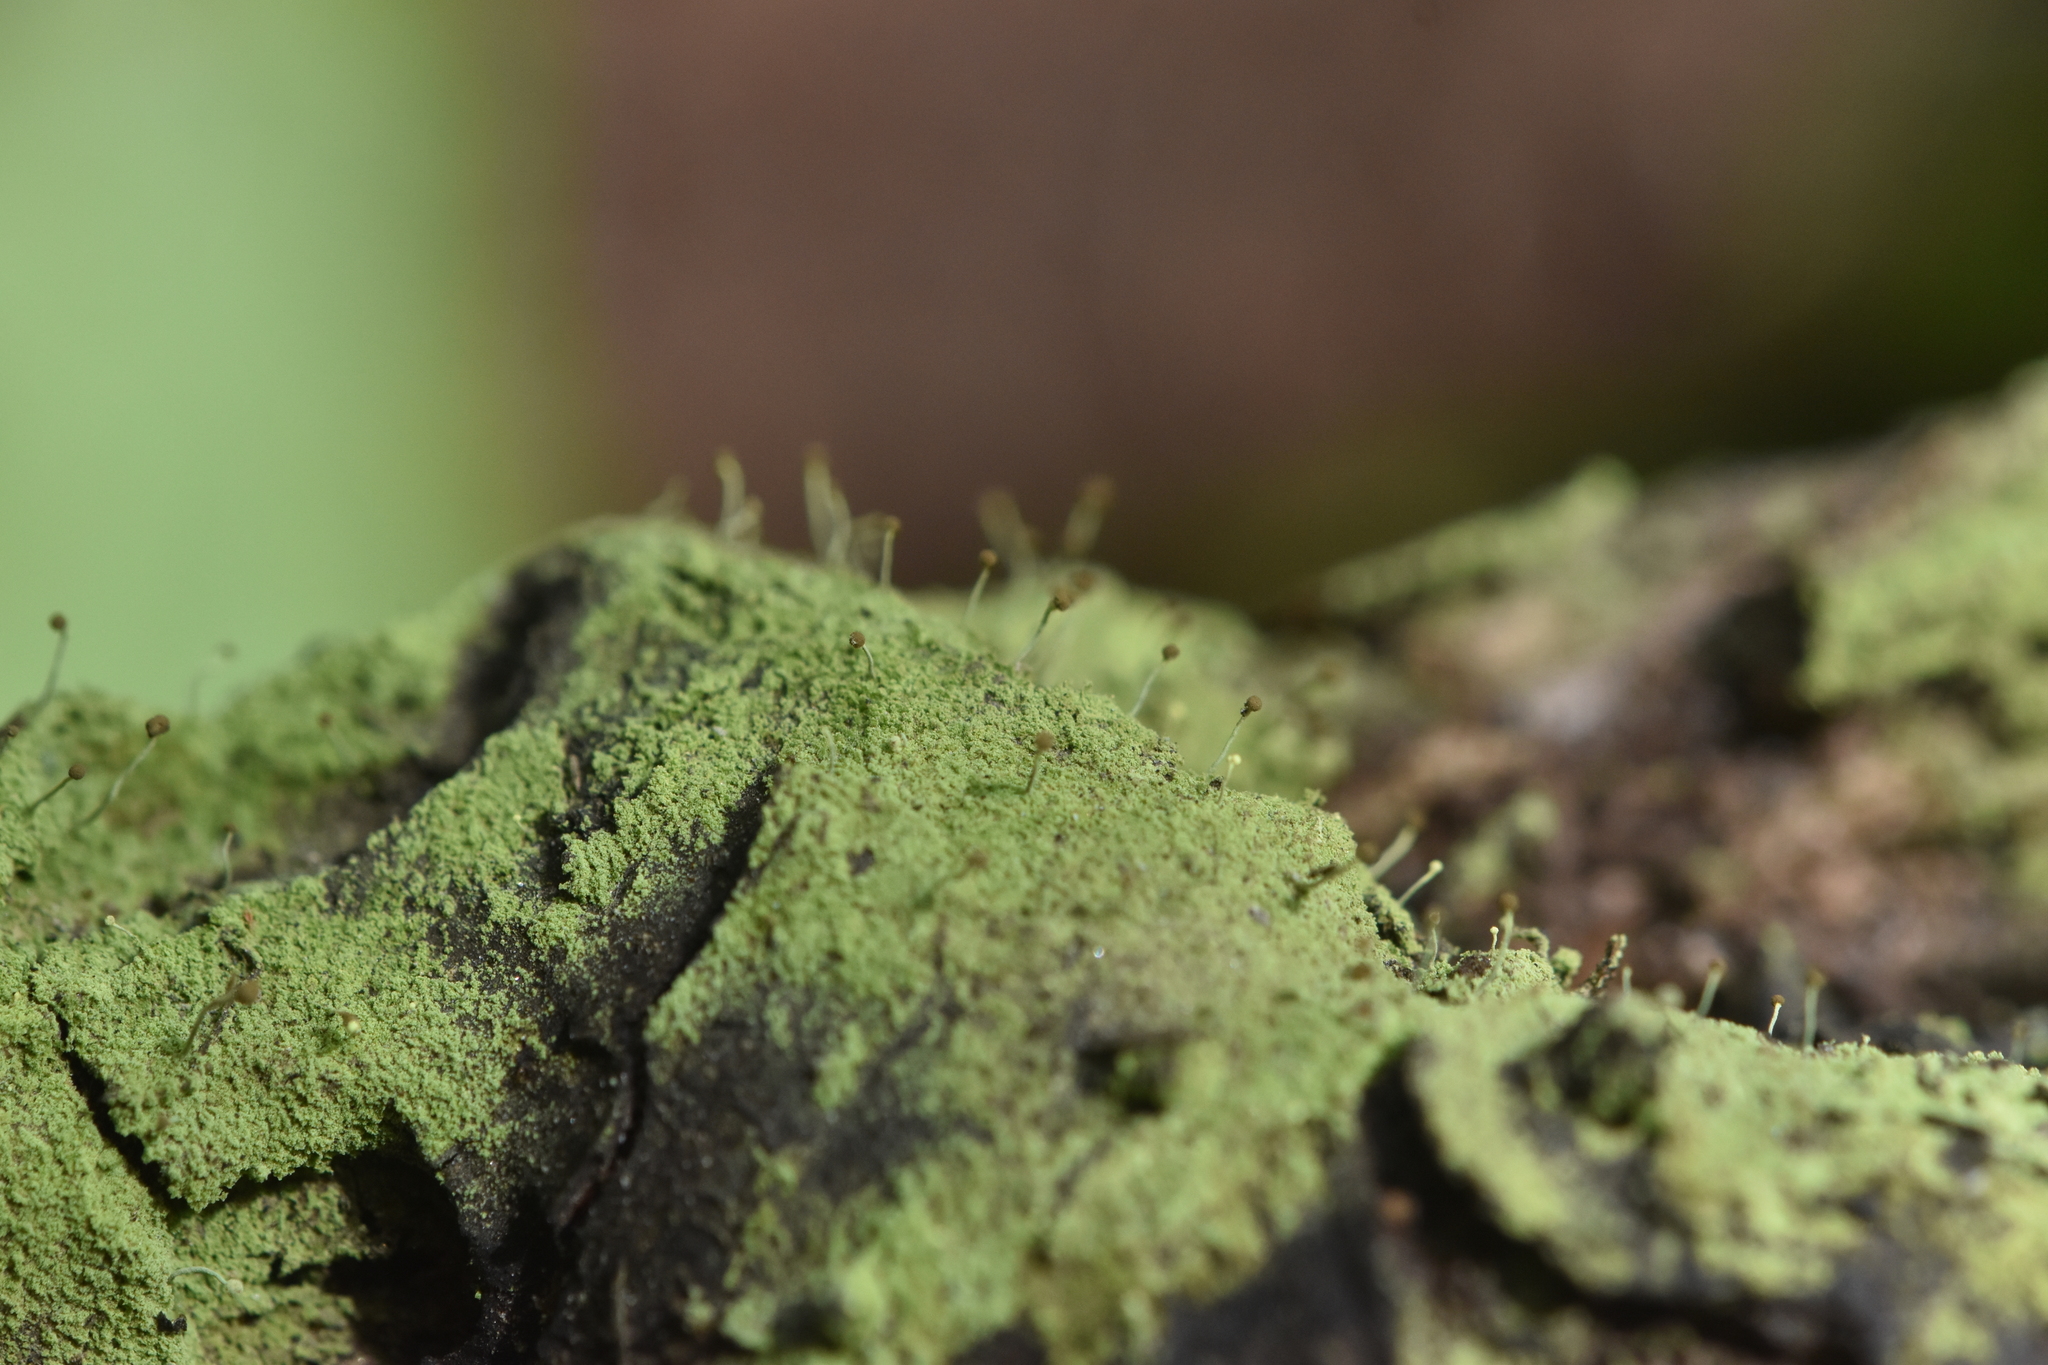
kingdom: Fungi
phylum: Ascomycota
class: Coniocybomycetes
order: Coniocybales
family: Coniocybaceae
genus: Chaenotheca
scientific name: Chaenotheca furfuracea
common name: Sulphur stubble lichen
